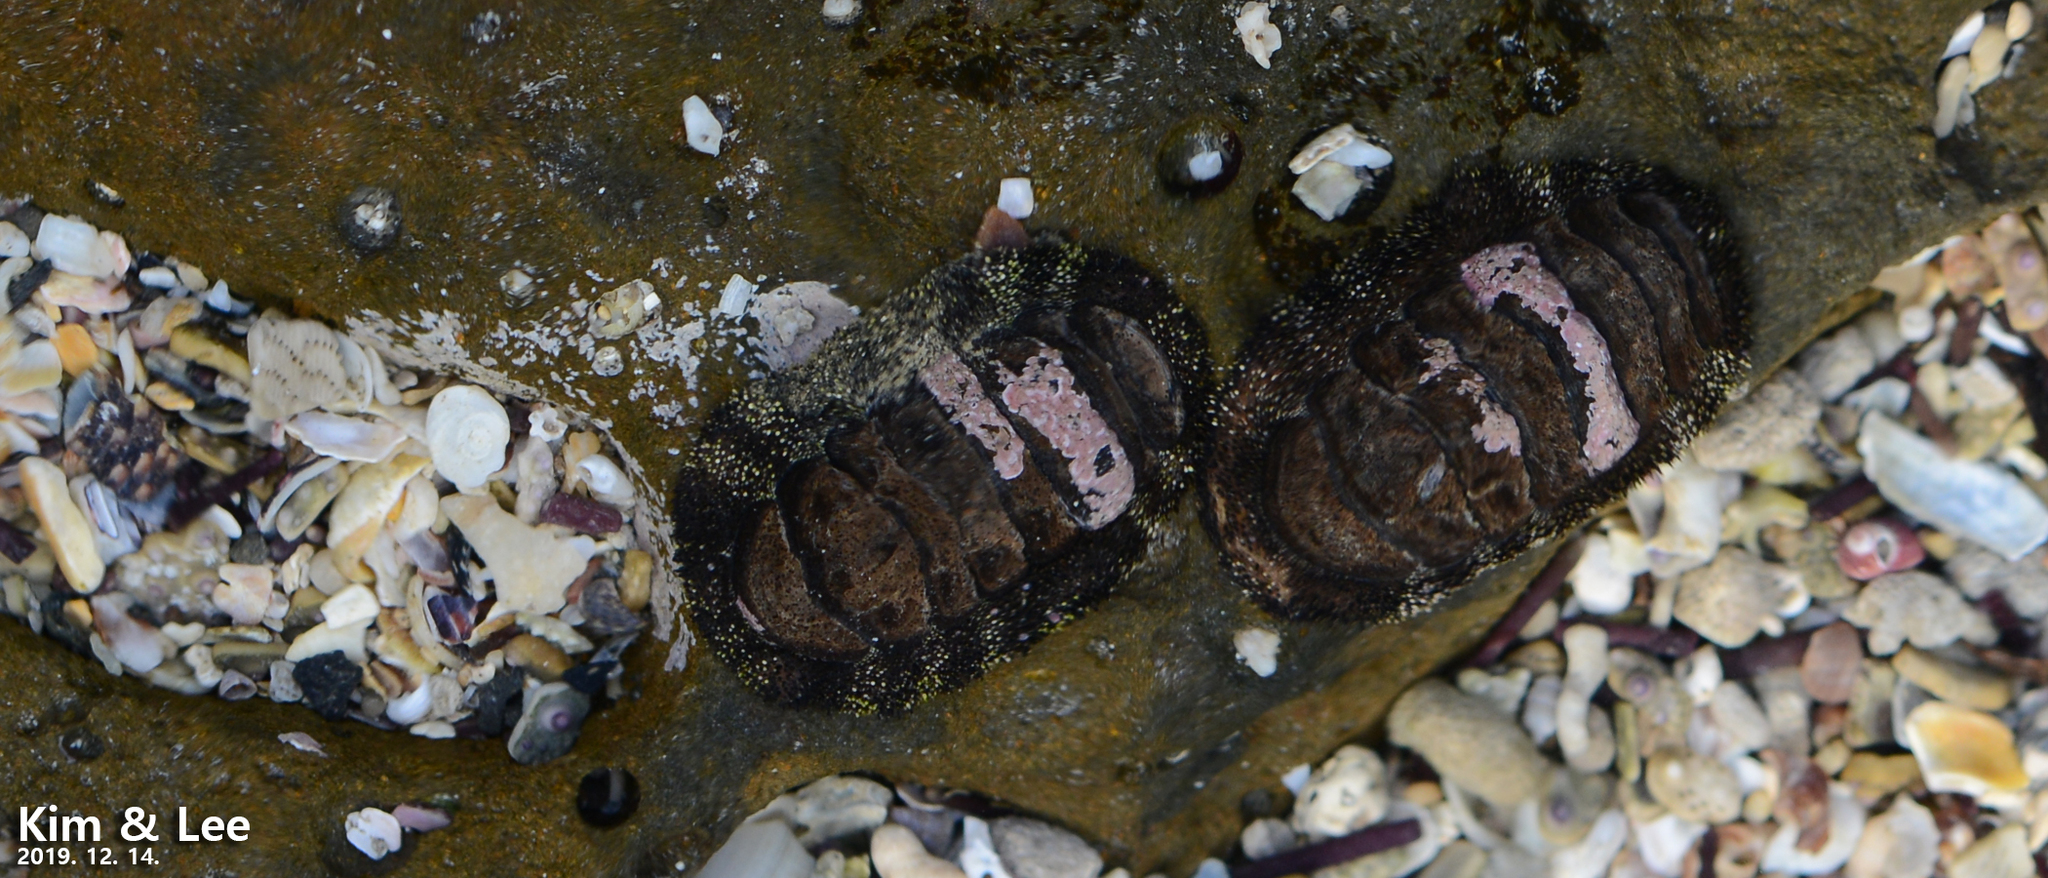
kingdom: Animalia
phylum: Mollusca
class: Polyplacophora
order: Chitonida
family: Chitonidae
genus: Liolophura
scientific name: Liolophura japonica
